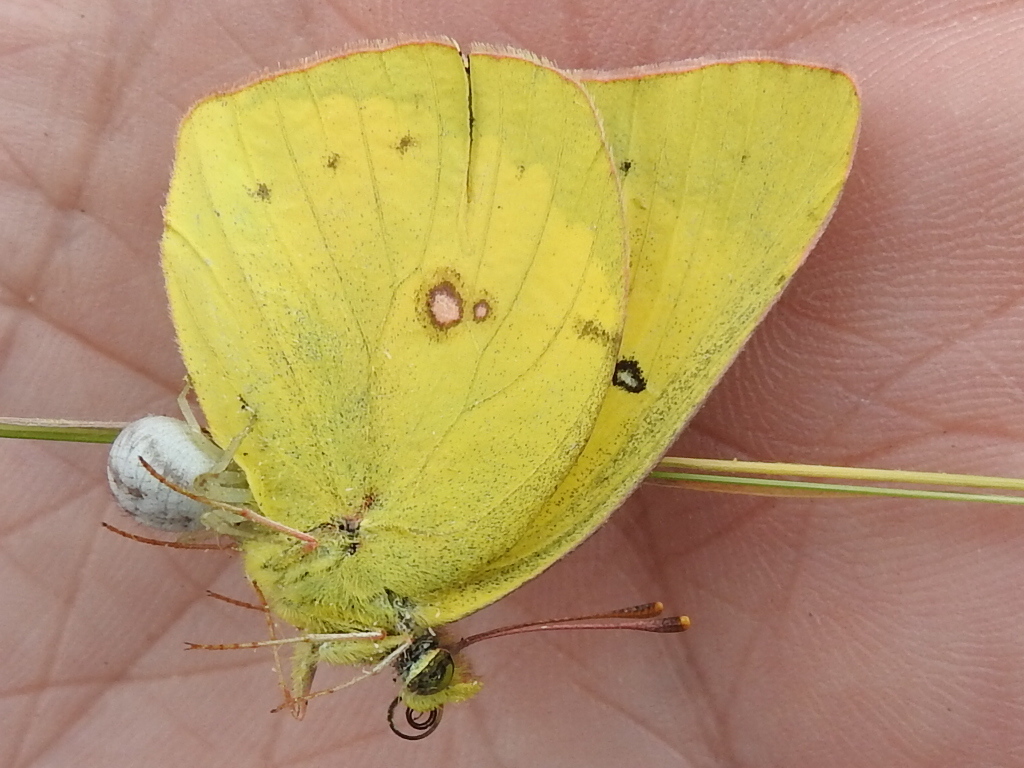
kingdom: Animalia
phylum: Arthropoda
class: Insecta
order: Lepidoptera
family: Pieridae
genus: Colias
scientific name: Colias eurytheme
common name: Alfalfa butterfly
